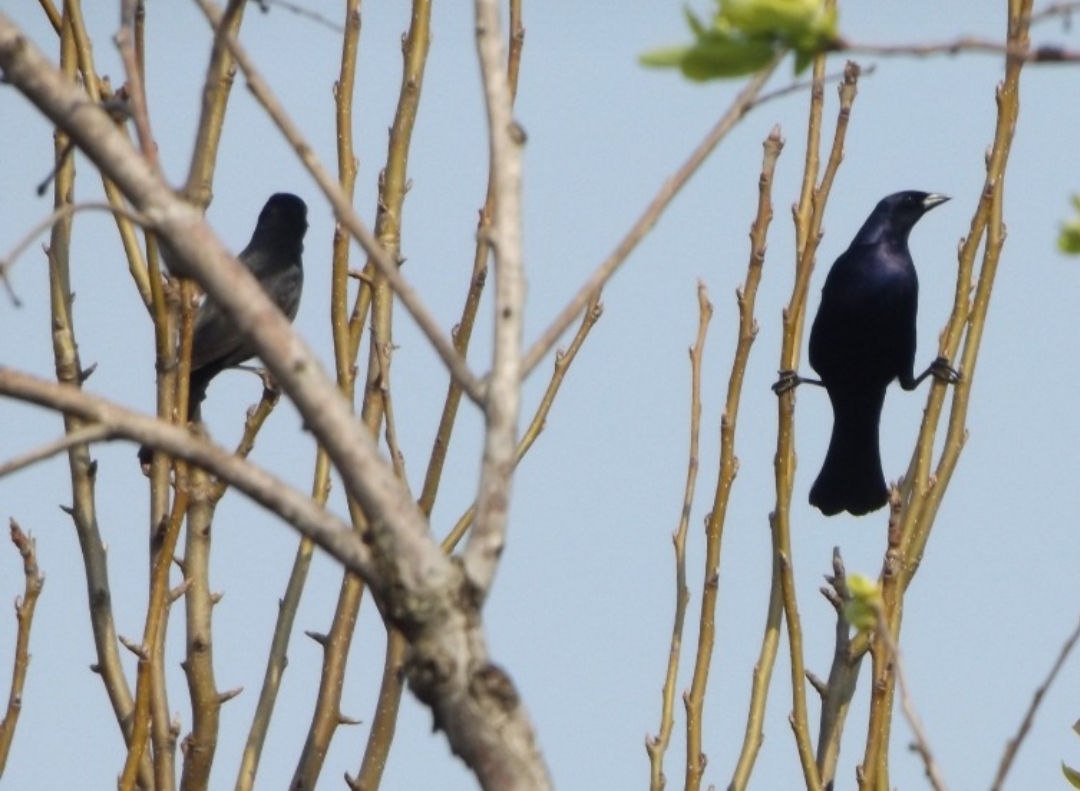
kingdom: Animalia
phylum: Chordata
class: Aves
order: Passeriformes
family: Icteridae
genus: Molothrus
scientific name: Molothrus bonariensis
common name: Shiny cowbird
